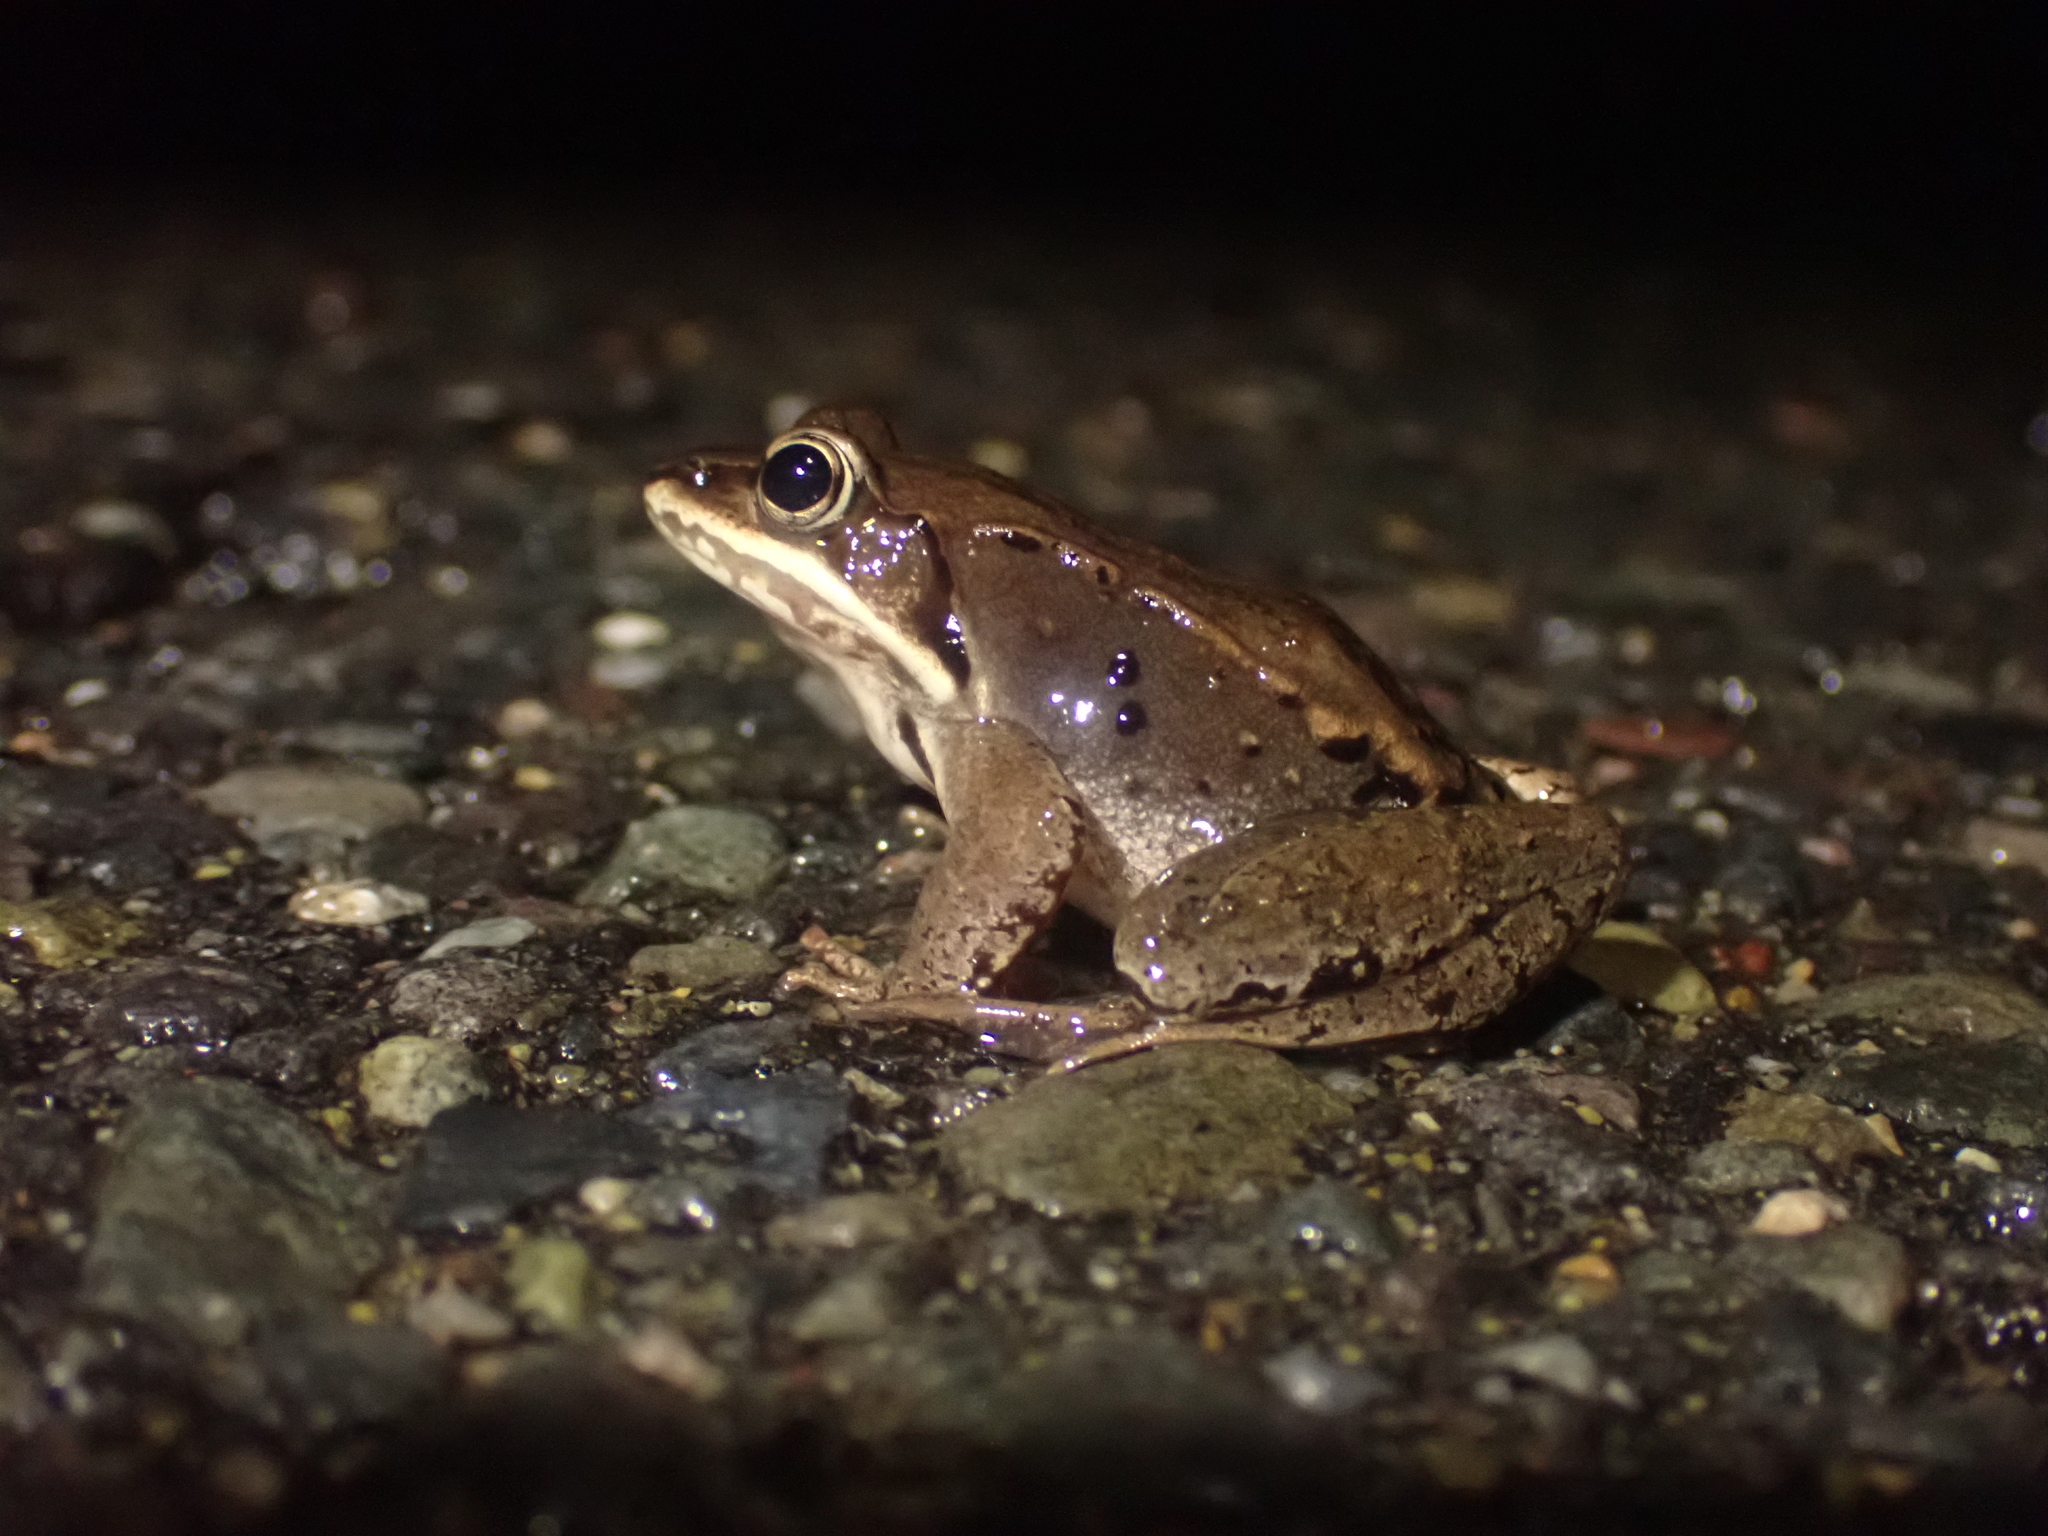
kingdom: Animalia
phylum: Chordata
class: Amphibia
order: Anura
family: Ranidae
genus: Lithobates
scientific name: Lithobates sylvaticus
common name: Wood frog
